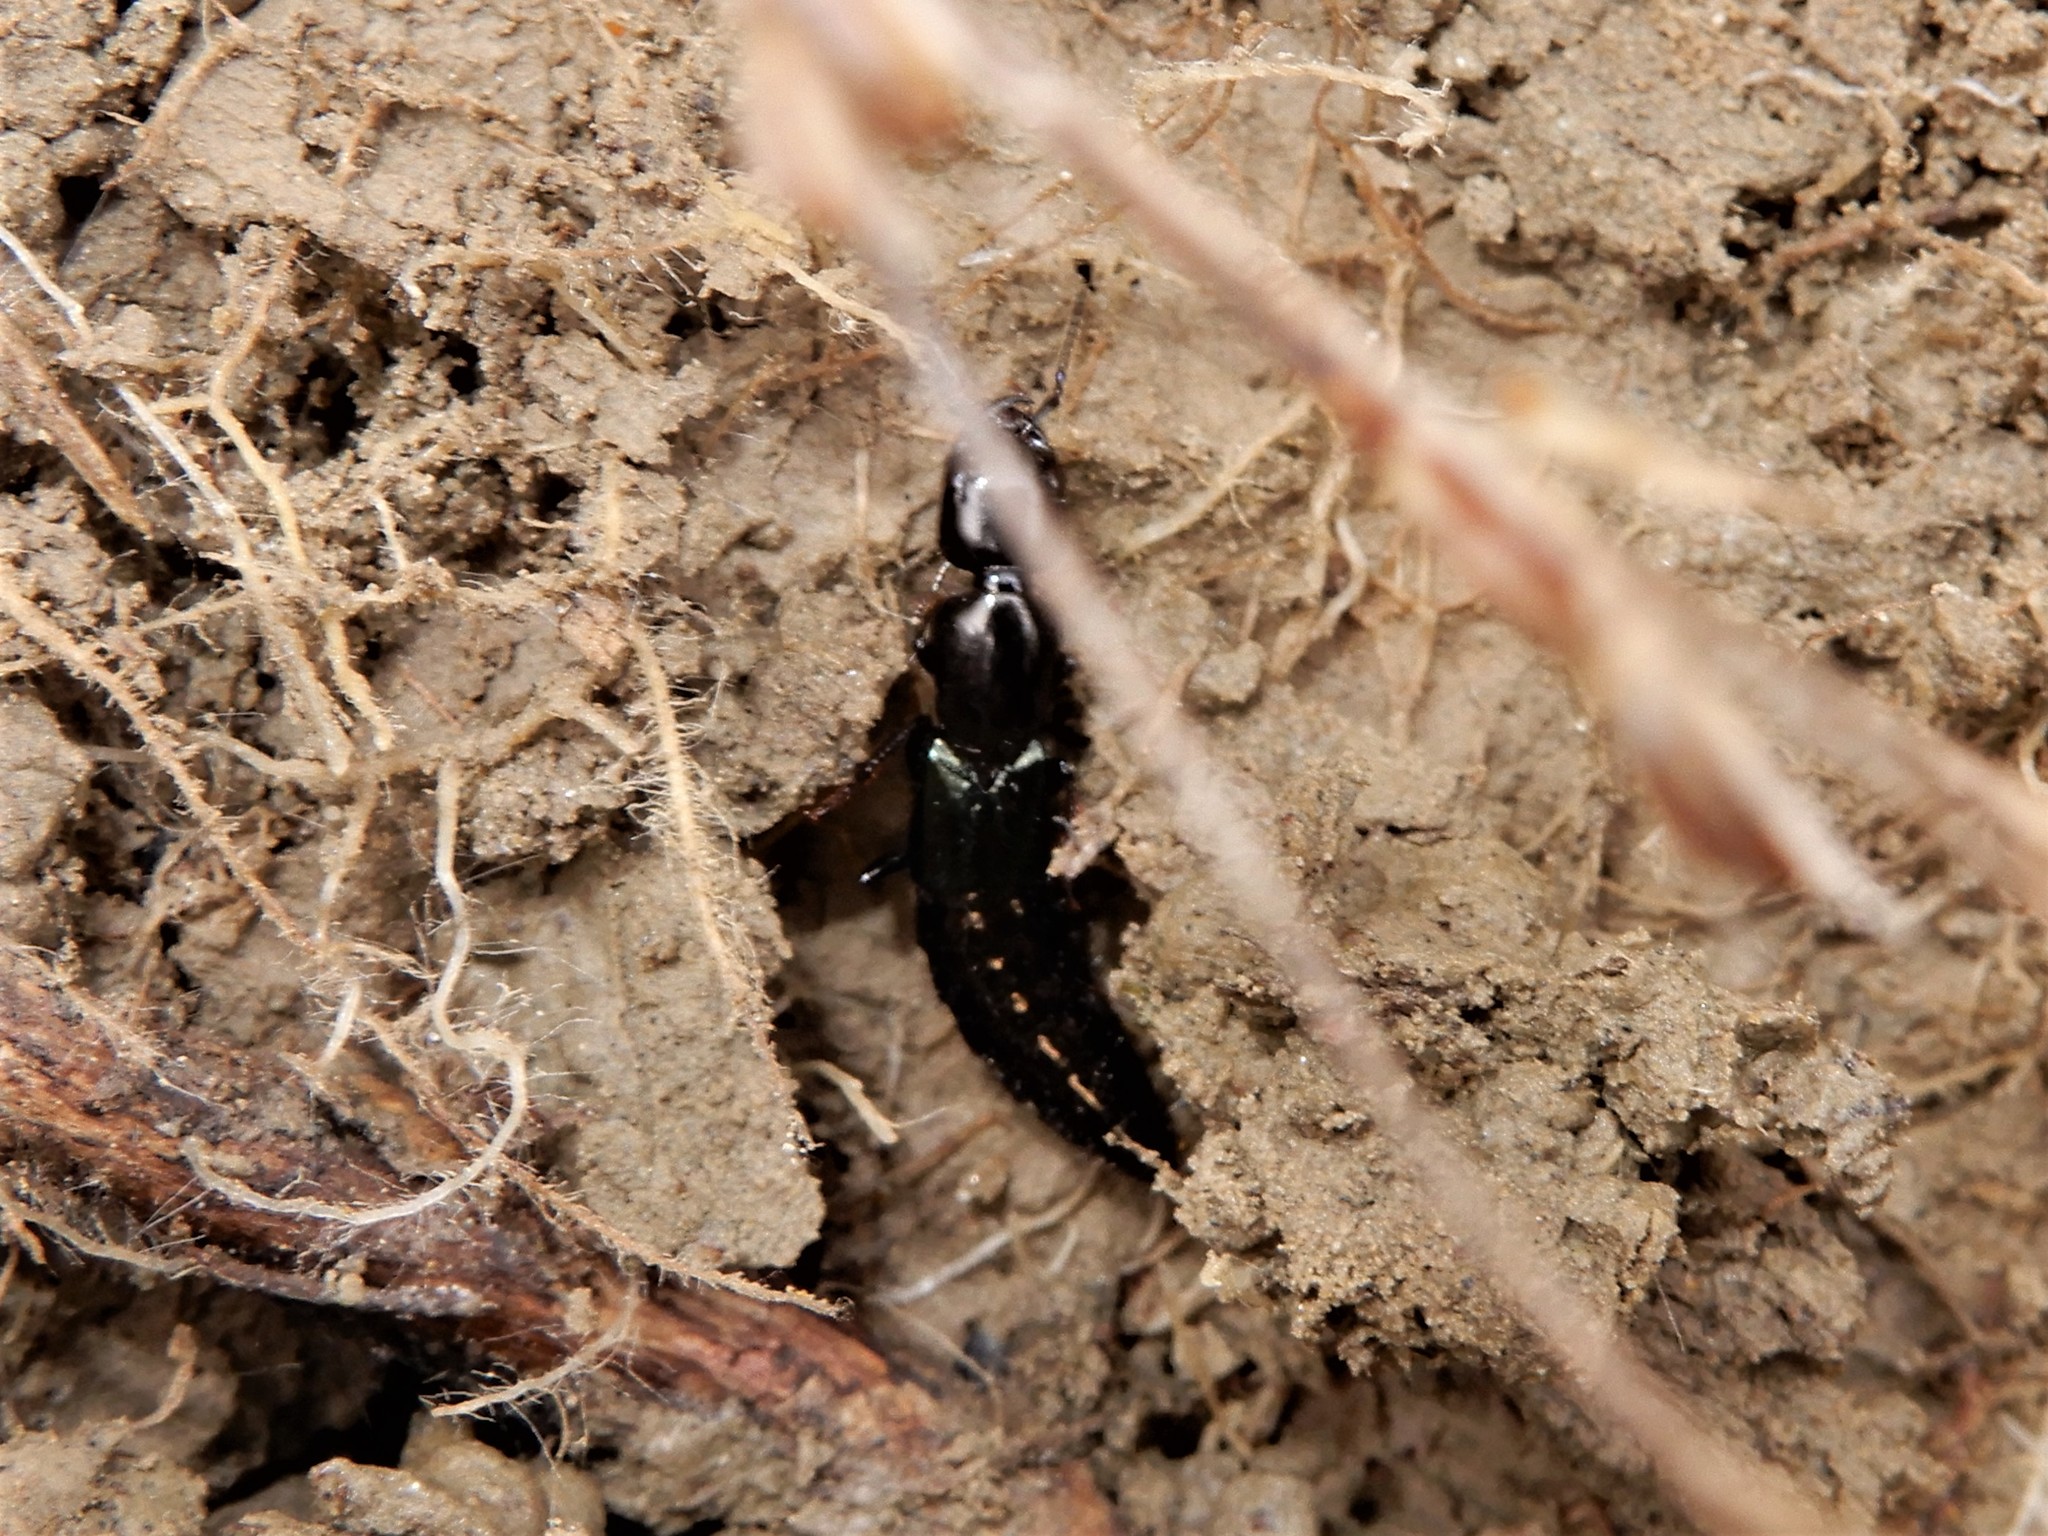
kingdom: Animalia
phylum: Arthropoda
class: Insecta
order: Coleoptera
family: Staphylinidae
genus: Thyreocephalus
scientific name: Thyreocephalus orthodoxus
